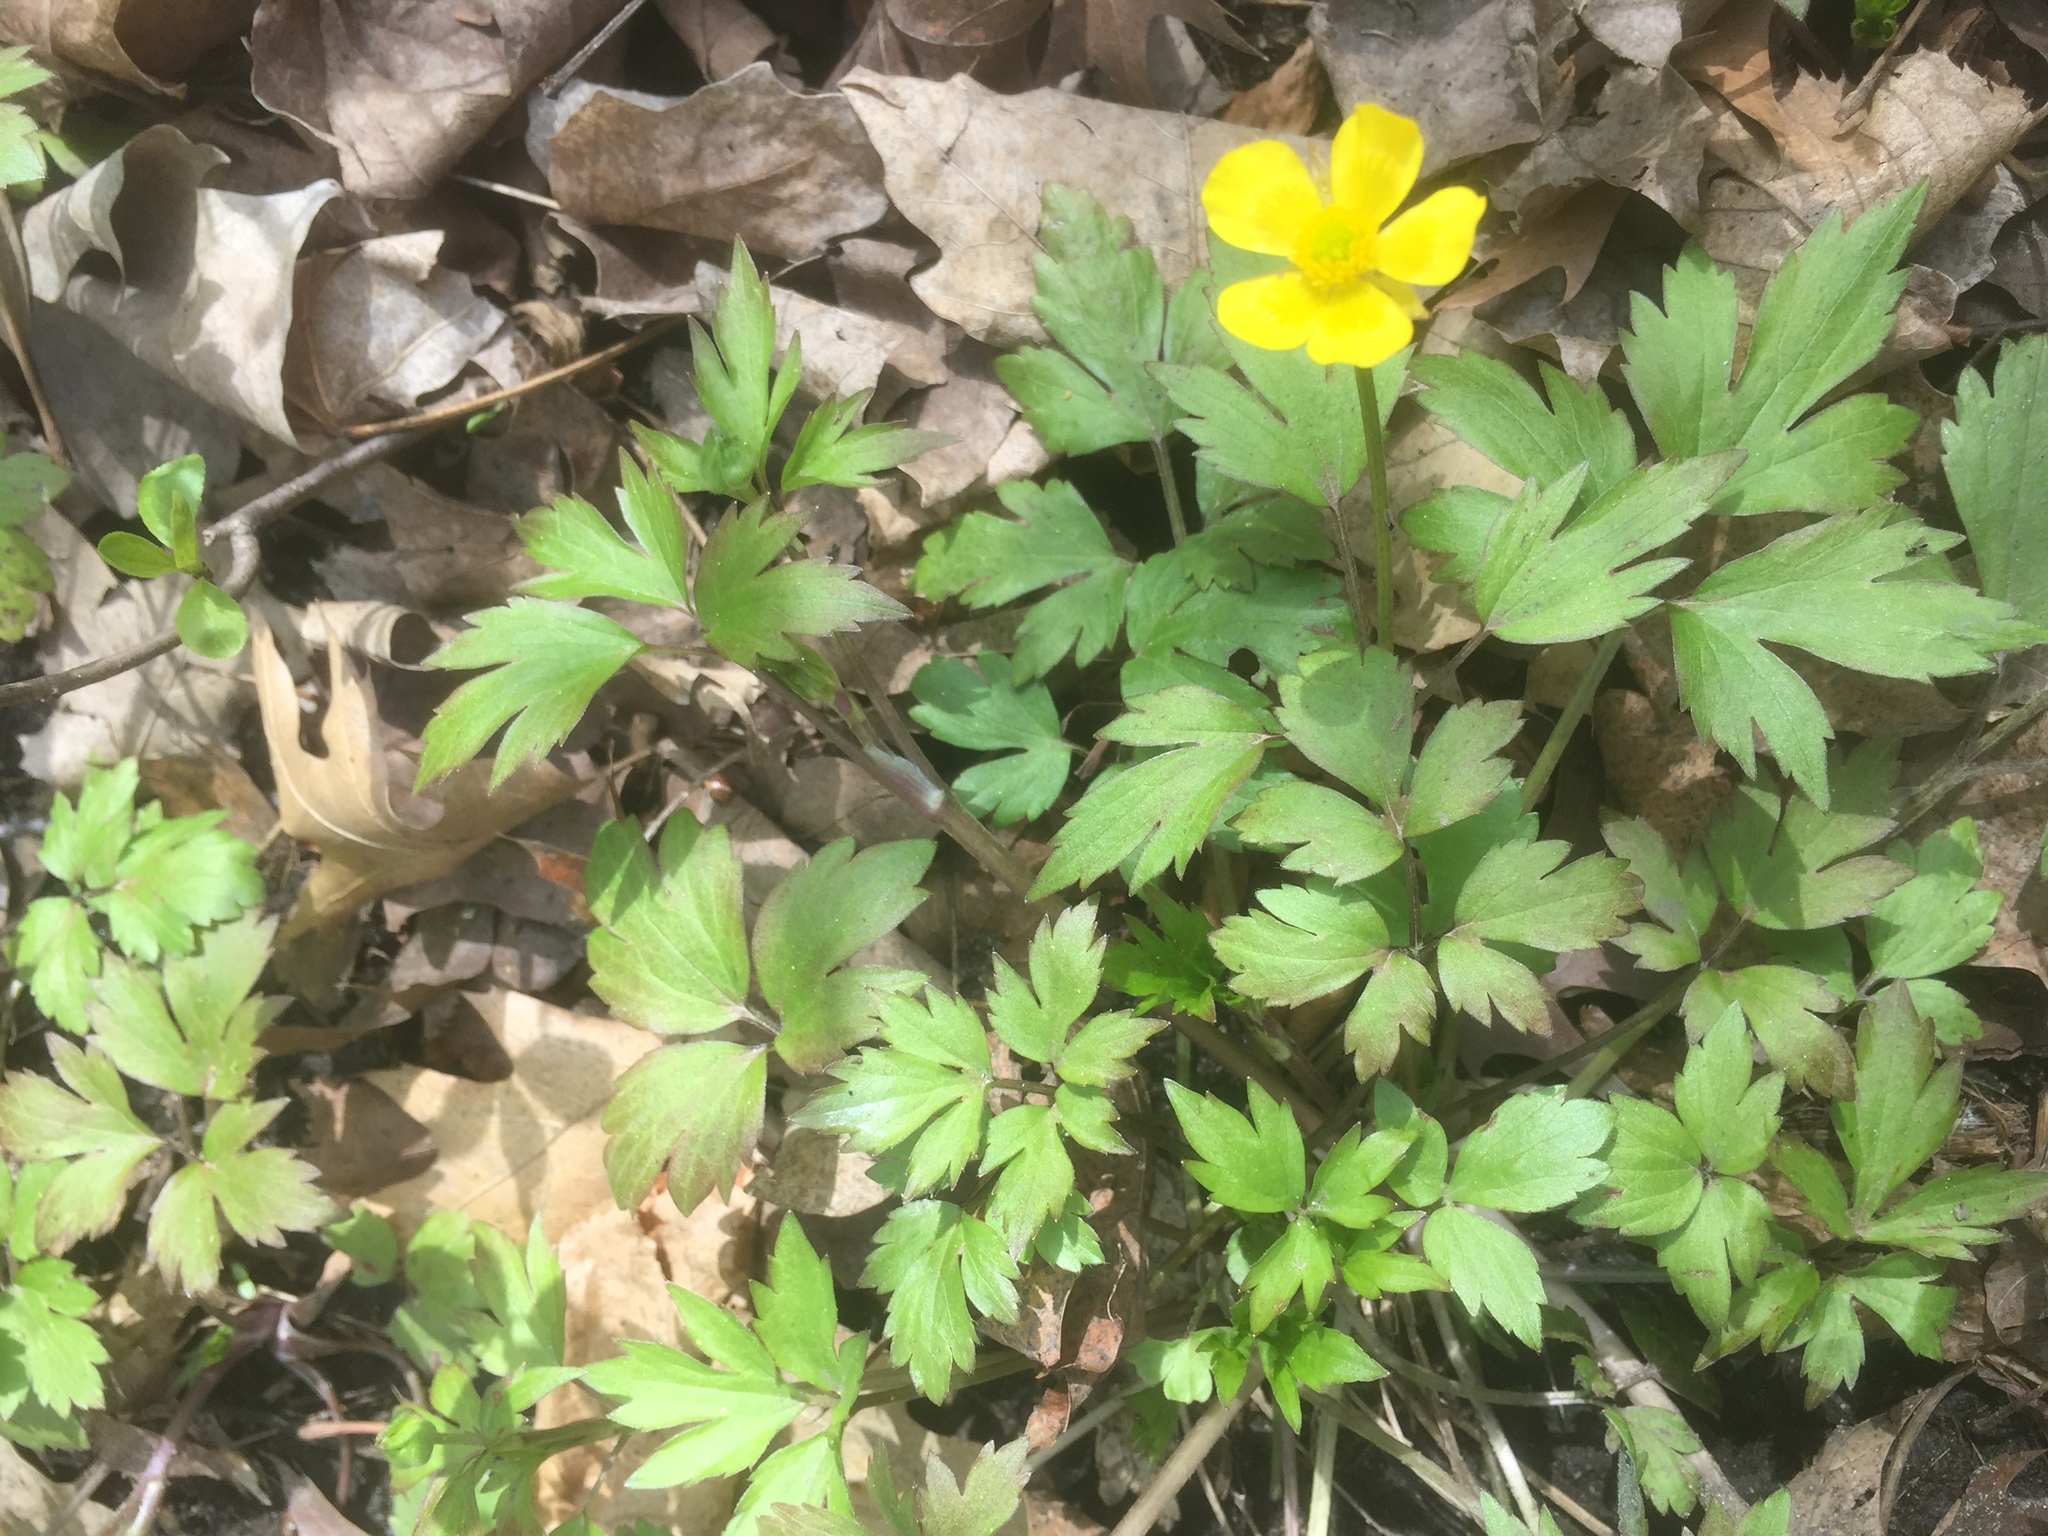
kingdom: Plantae
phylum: Tracheophyta
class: Magnoliopsida
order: Ranunculales
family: Ranunculaceae
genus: Ranunculus
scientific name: Ranunculus hispidus
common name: Bristly buttercup
